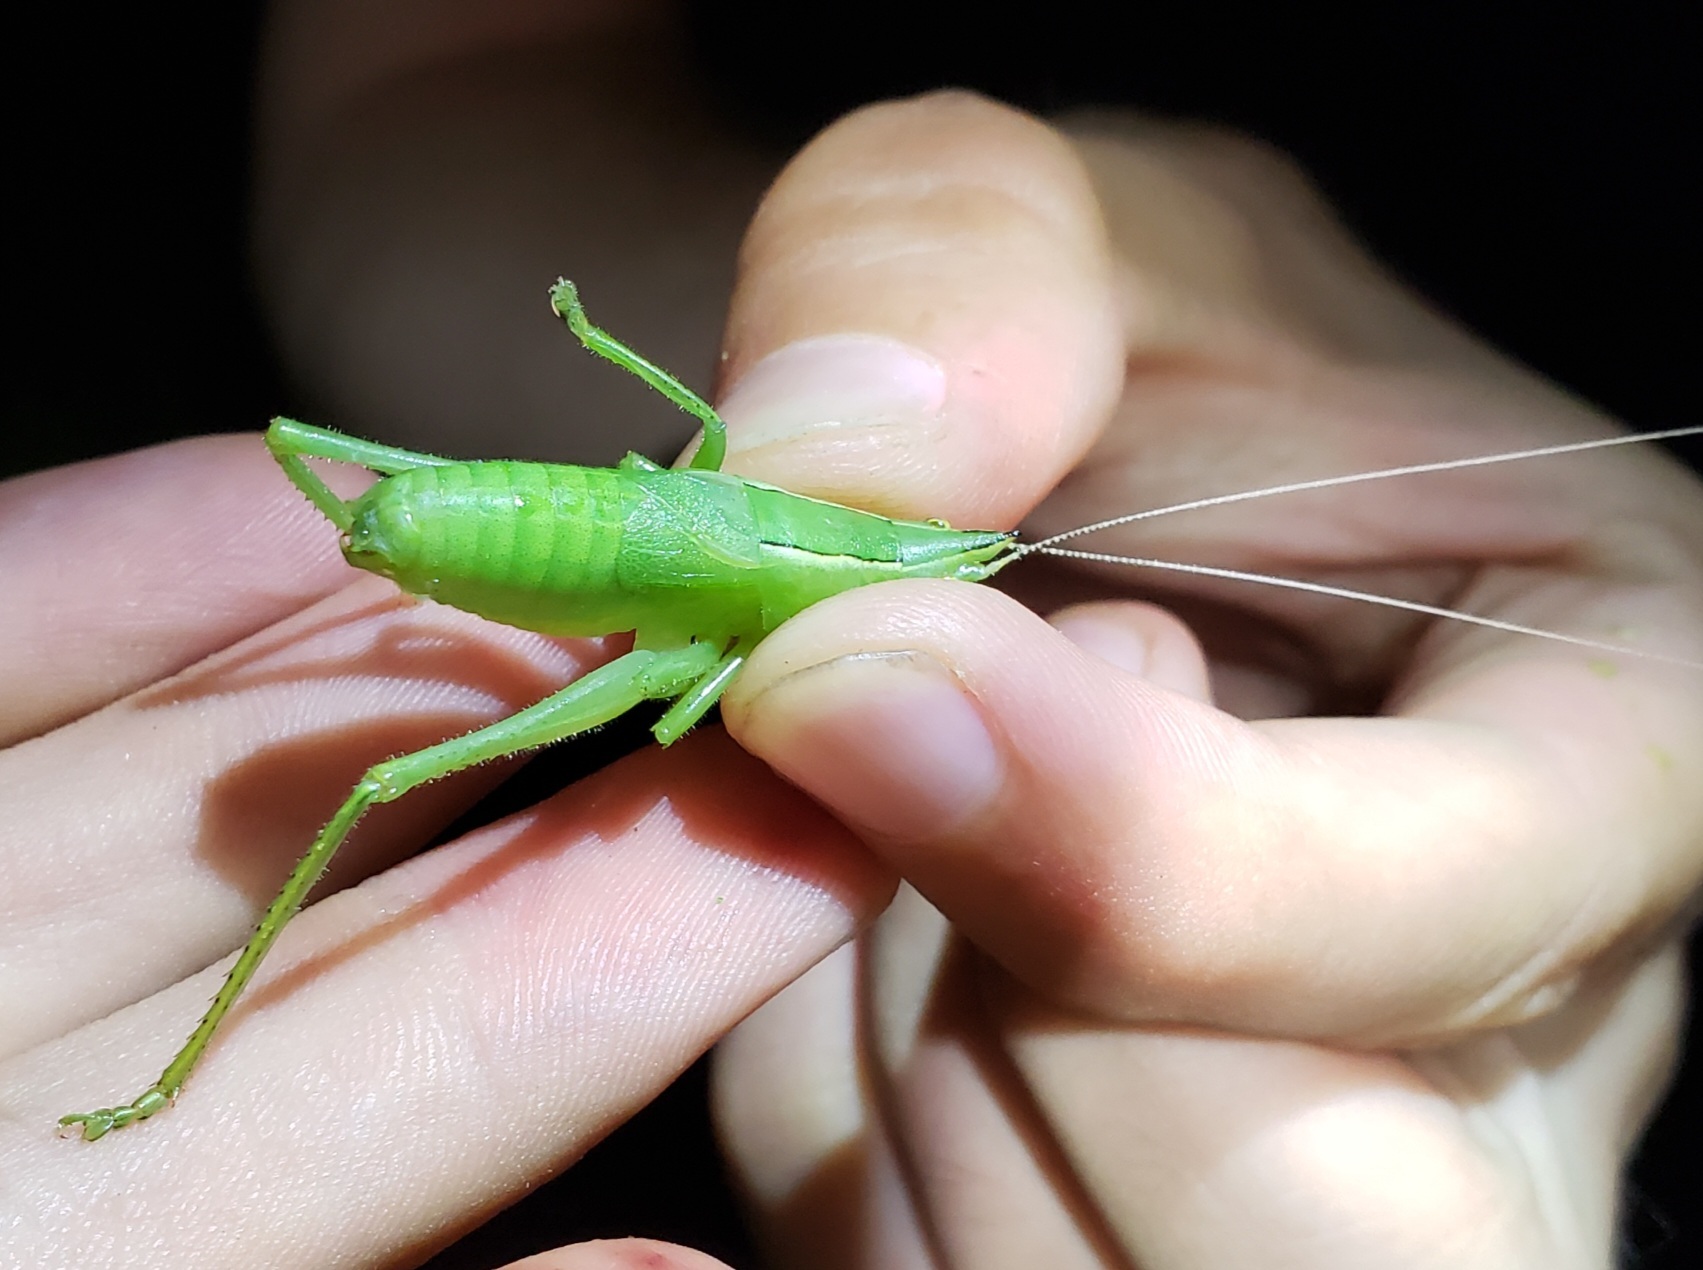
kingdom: Animalia
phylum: Arthropoda
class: Insecta
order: Orthoptera
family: Tettigoniidae
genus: Belocephalus
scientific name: Belocephalus subapterus
